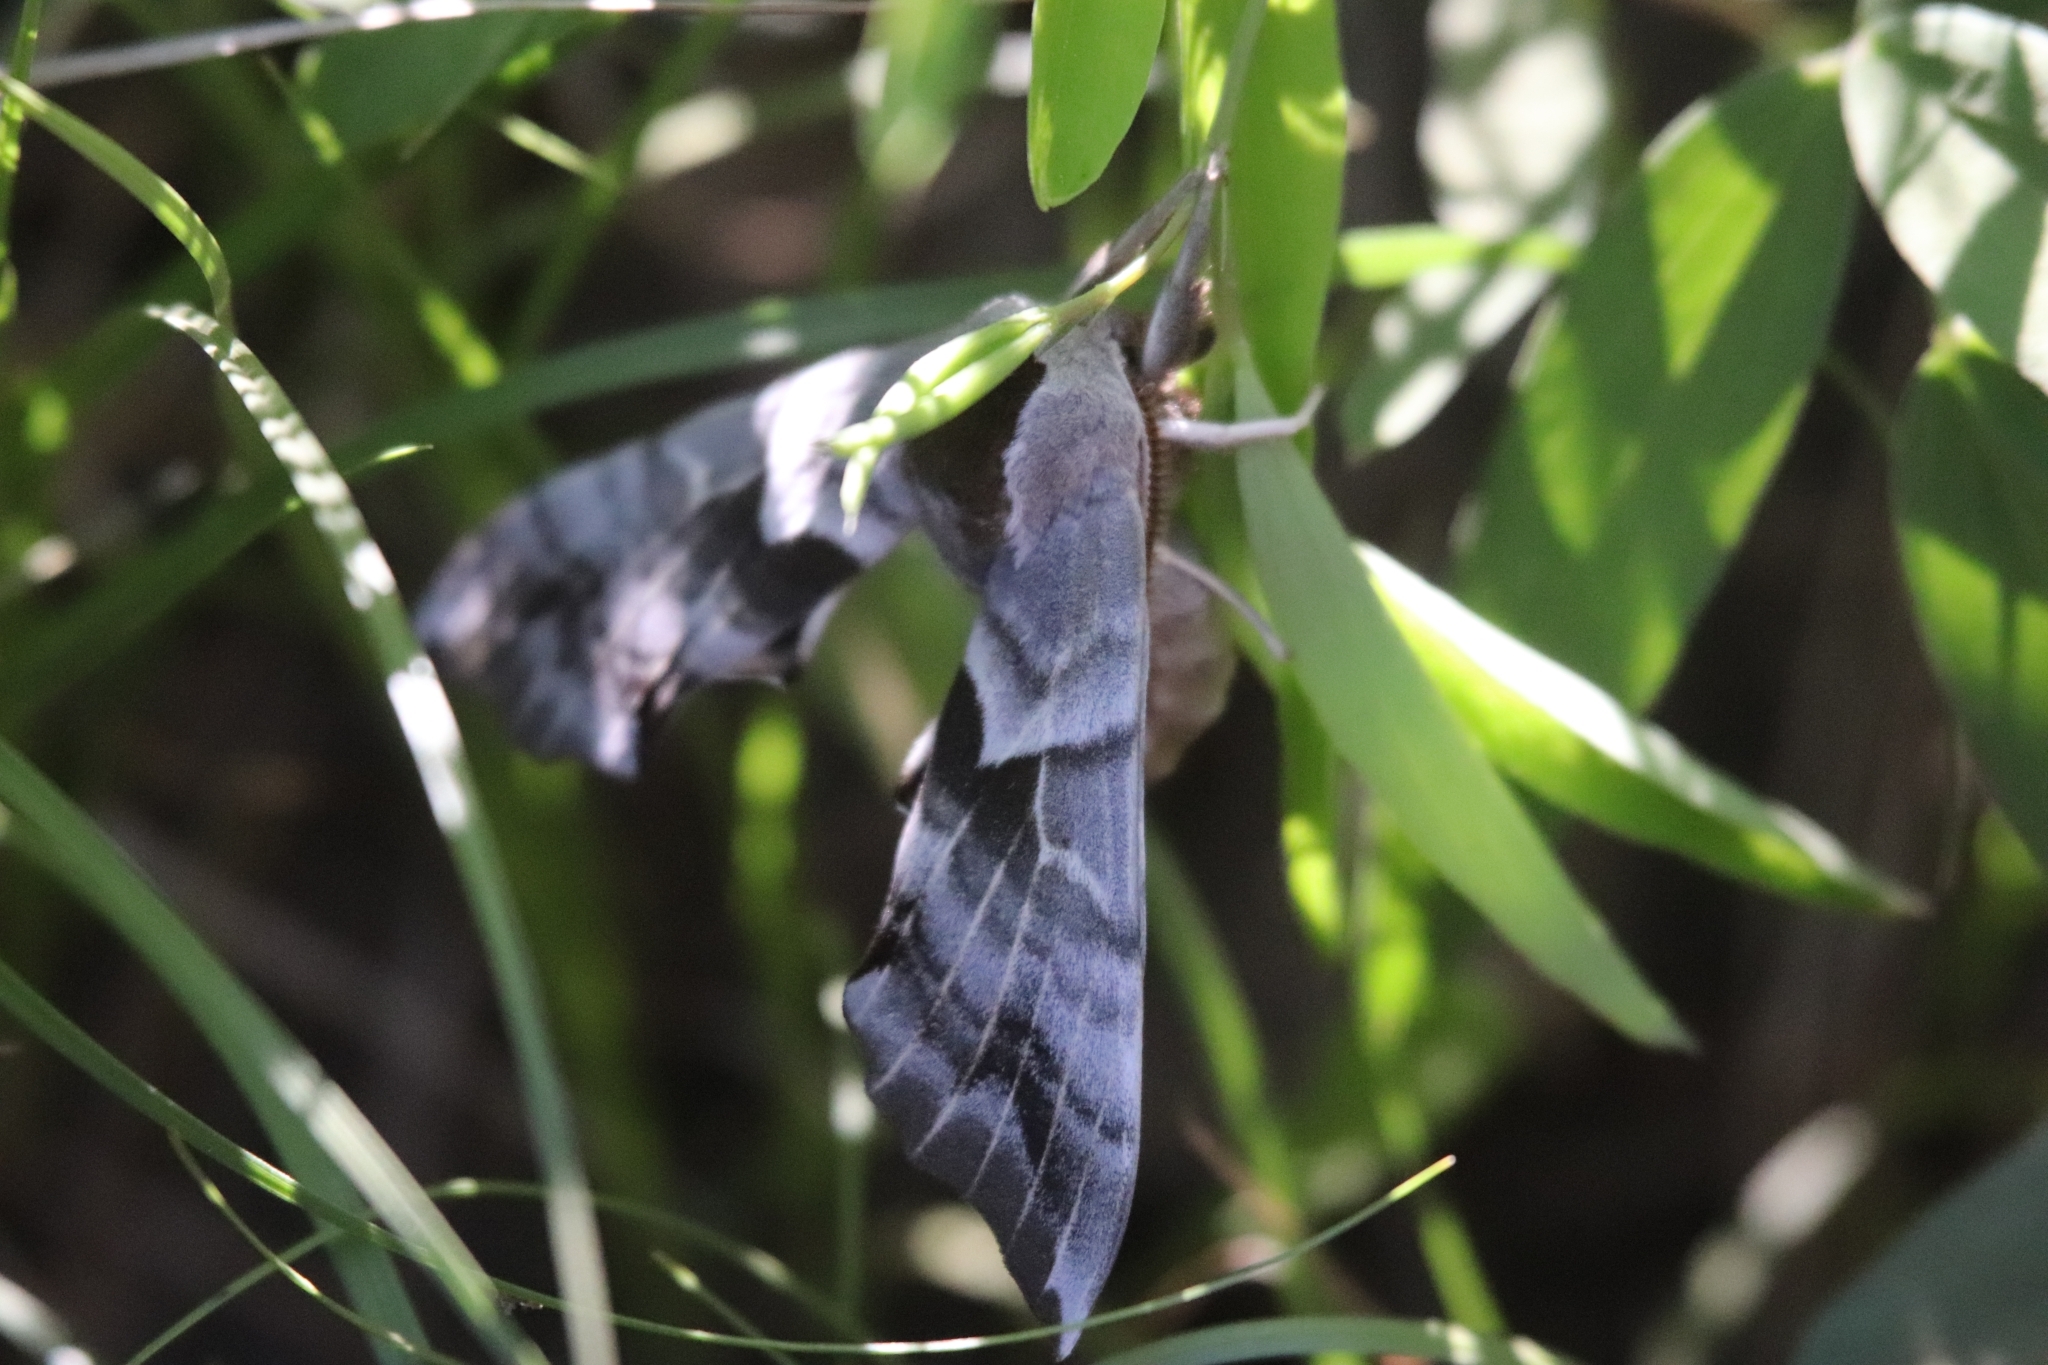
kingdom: Animalia
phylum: Arthropoda
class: Insecta
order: Lepidoptera
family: Sphingidae
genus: Smerinthus
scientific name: Smerinthus cerisyi
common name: Cerisy's sphinx moth
